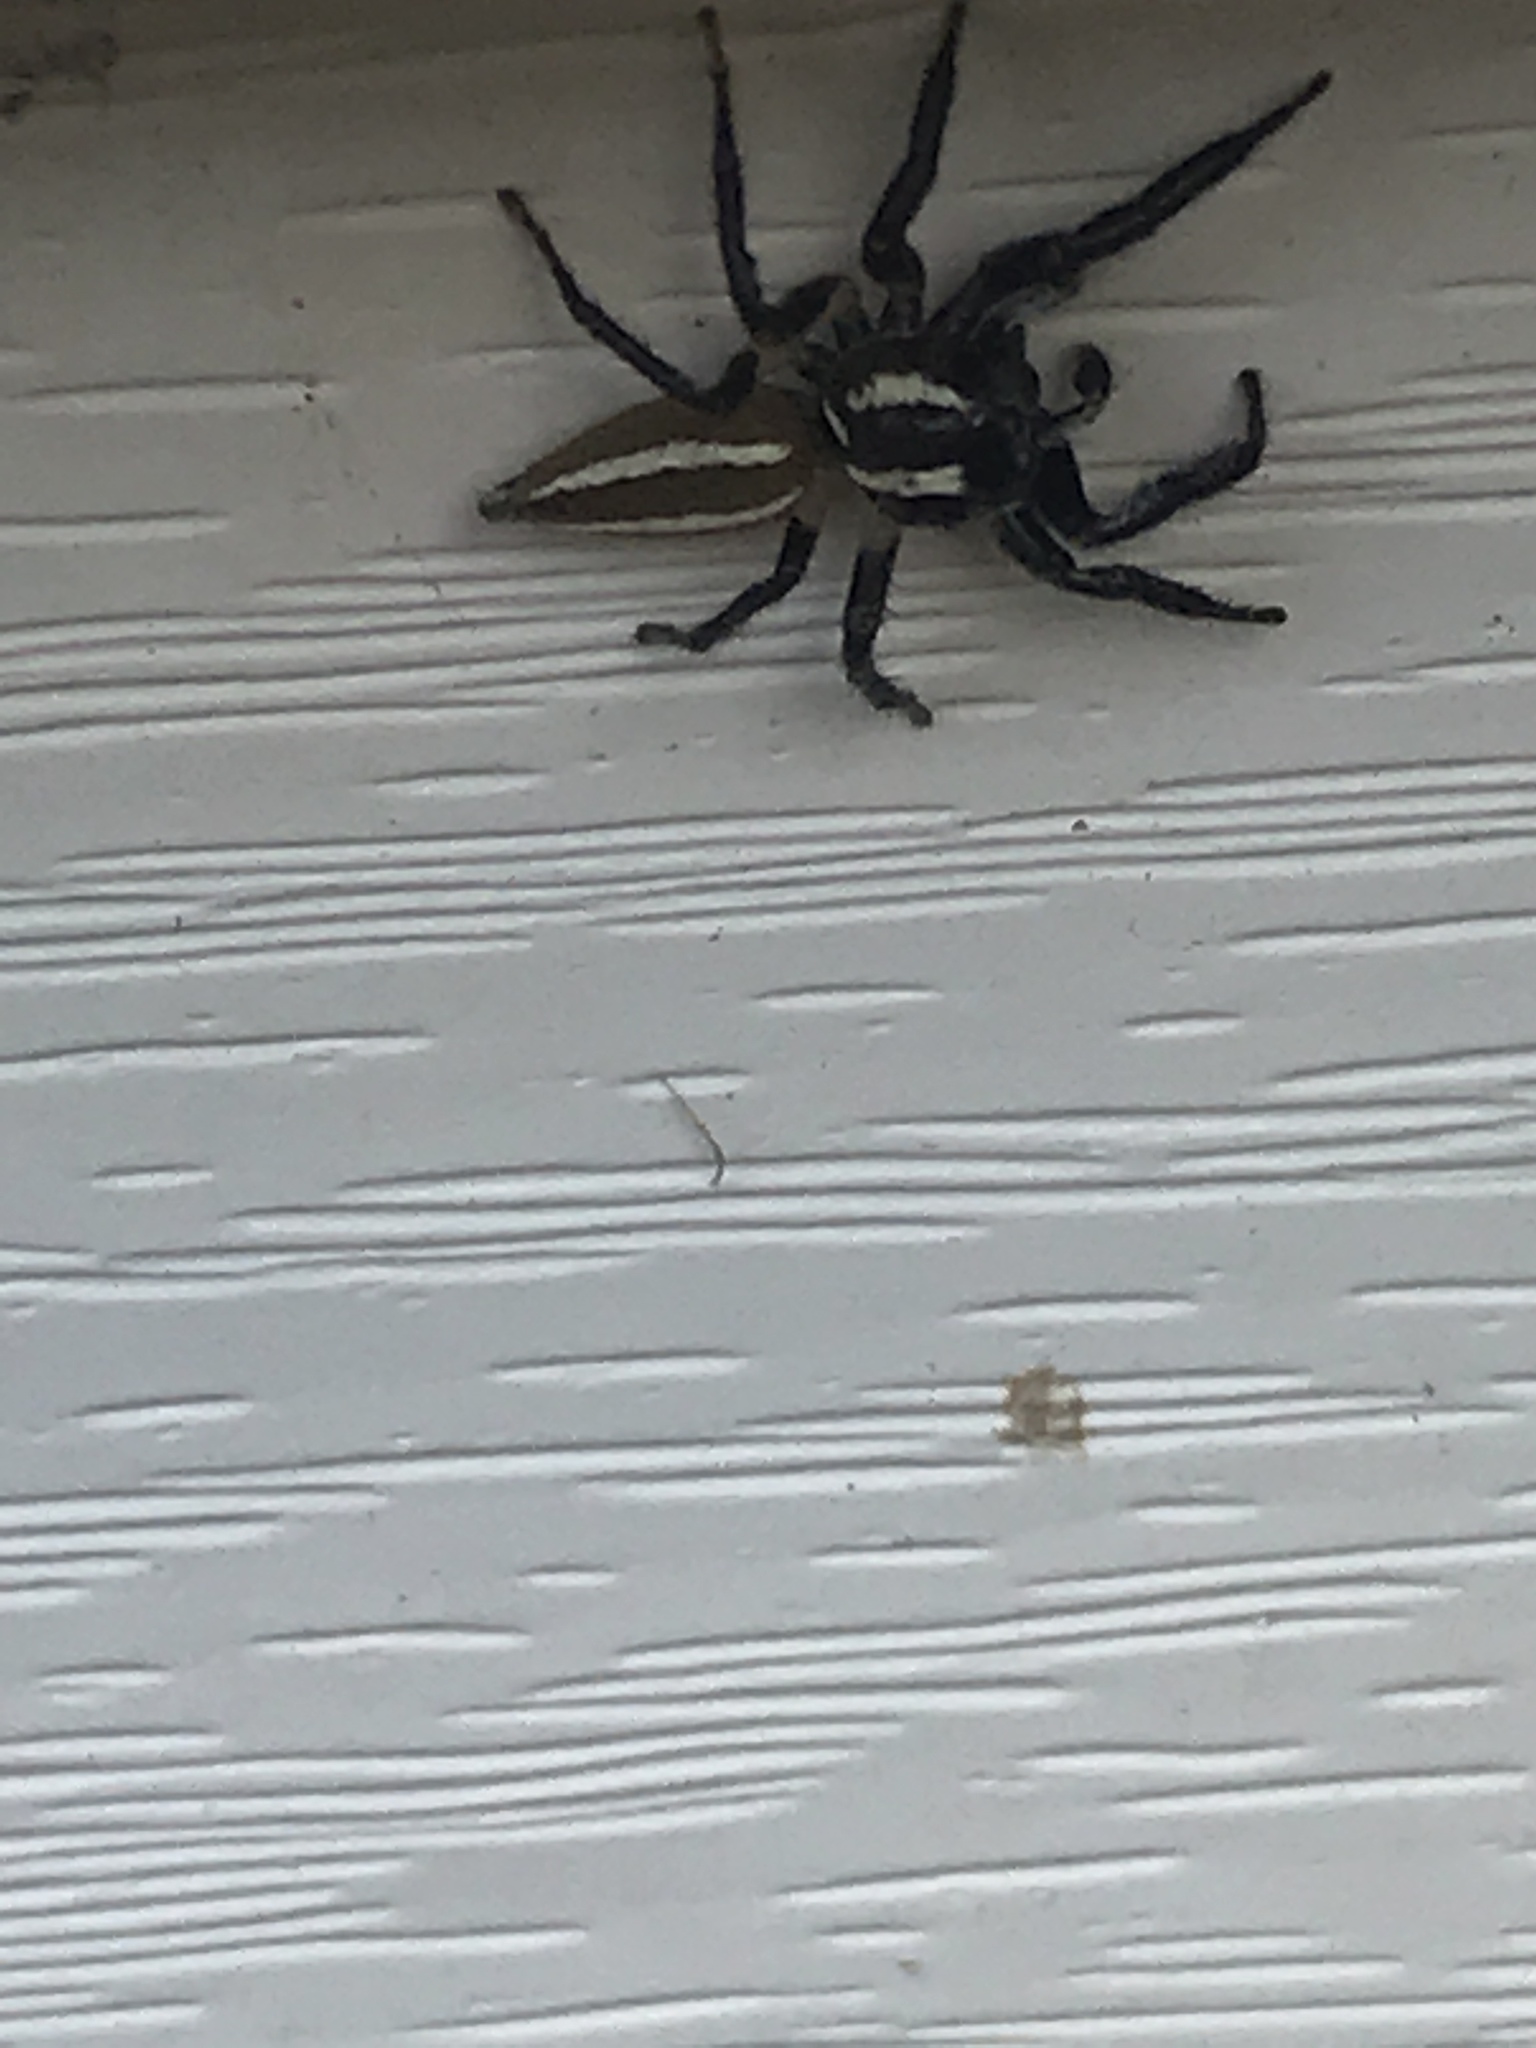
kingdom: Animalia
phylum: Arthropoda
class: Arachnida
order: Araneae
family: Salticidae
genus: Colonus
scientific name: Colonus puerperus
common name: Jumping spiders
